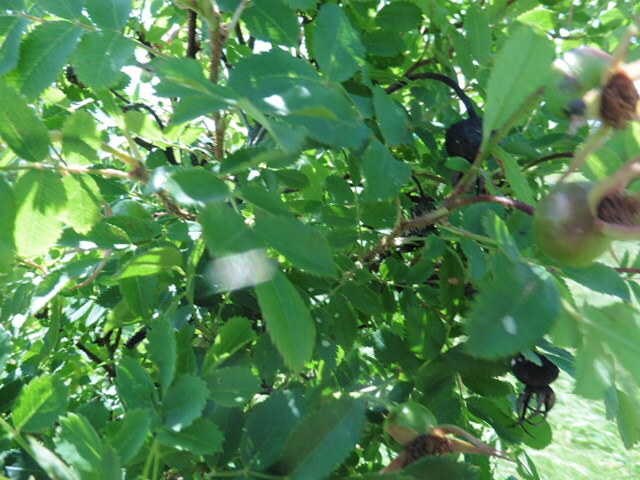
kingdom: Plantae
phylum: Tracheophyta
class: Magnoliopsida
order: Rosales
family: Rosaceae
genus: Rosa
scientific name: Rosa spinosissima
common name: Burnet rose
